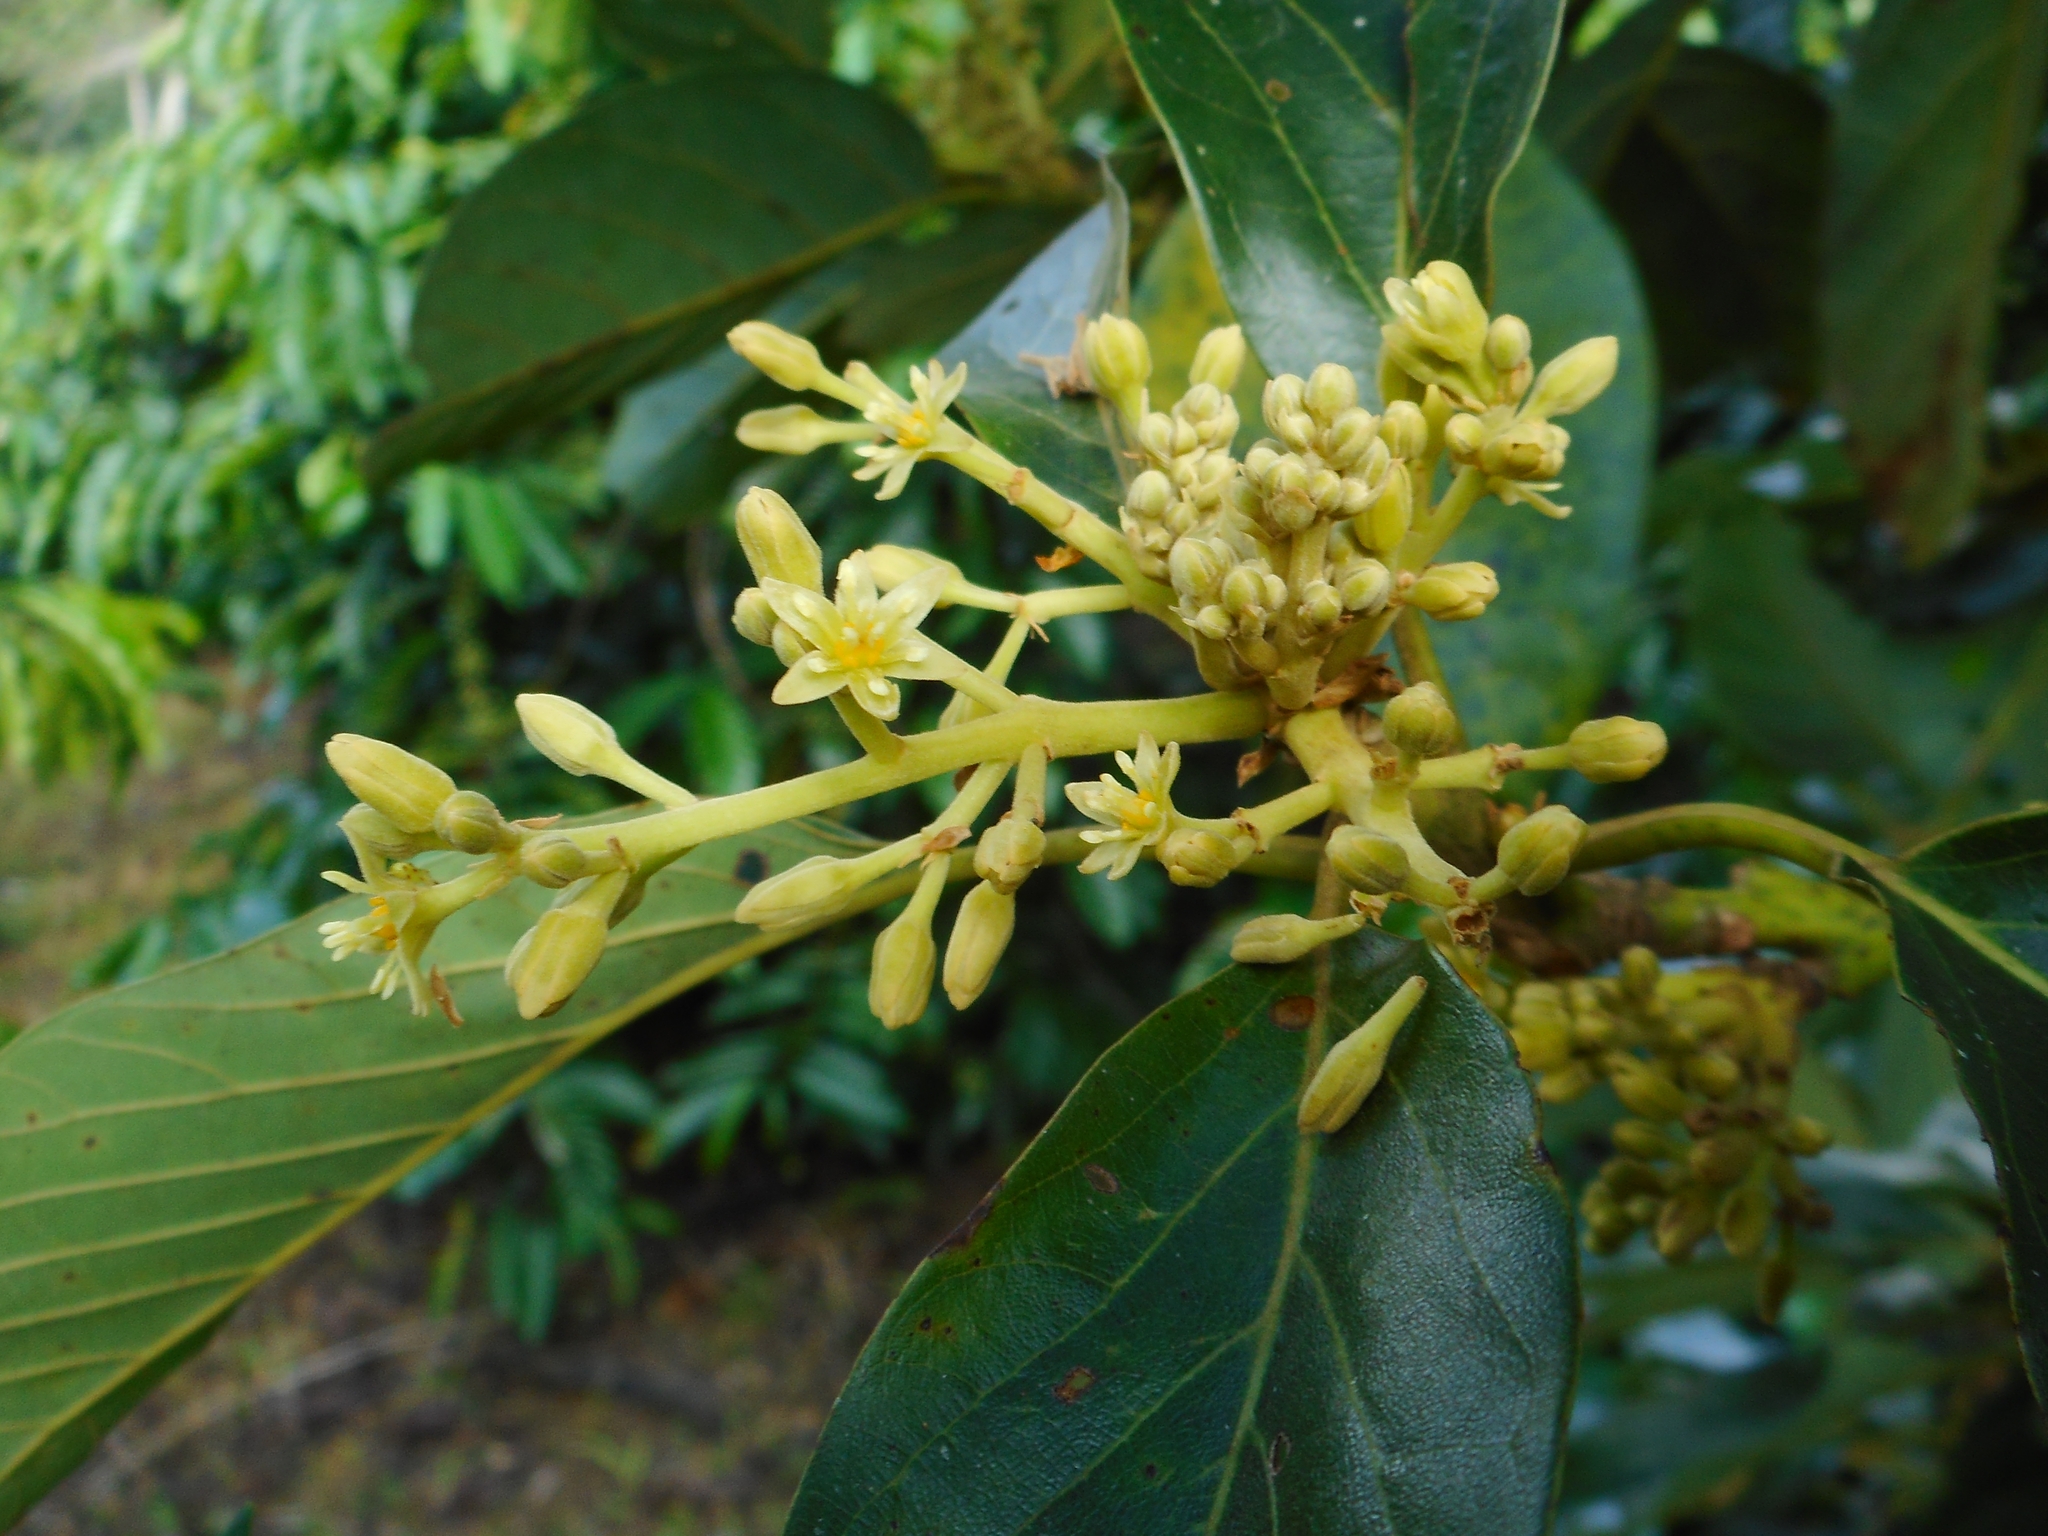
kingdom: Plantae
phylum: Tracheophyta
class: Magnoliopsida
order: Laurales
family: Lauraceae
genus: Persea
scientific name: Persea americana
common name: Avocado
